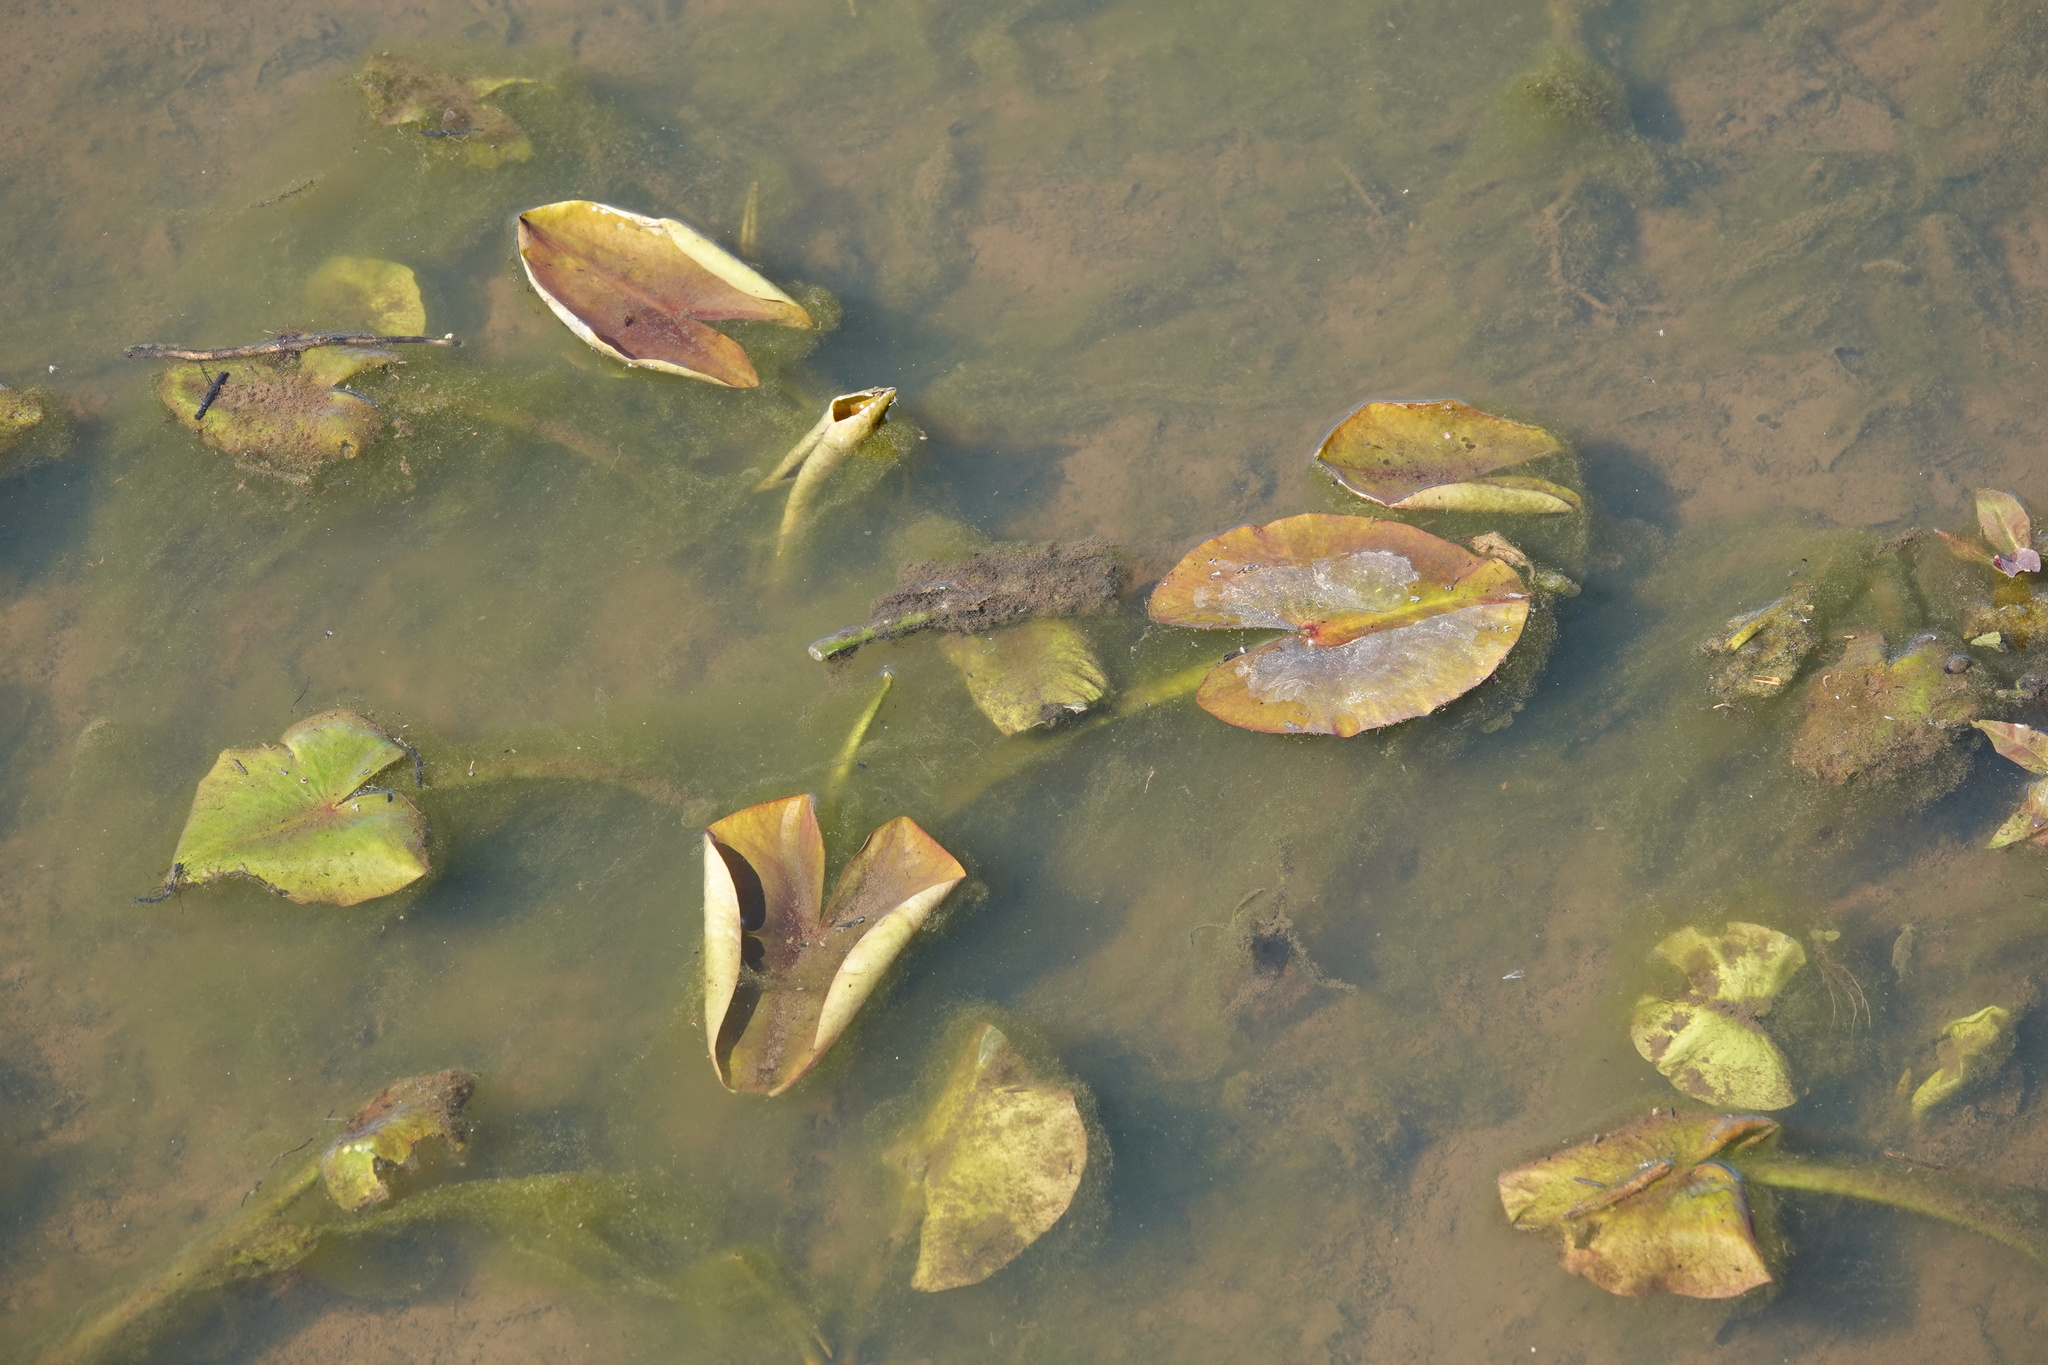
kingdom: Plantae
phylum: Tracheophyta
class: Magnoliopsida
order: Nymphaeales
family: Nymphaeaceae
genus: Nuphar
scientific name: Nuphar advena
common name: Spatter-dock
